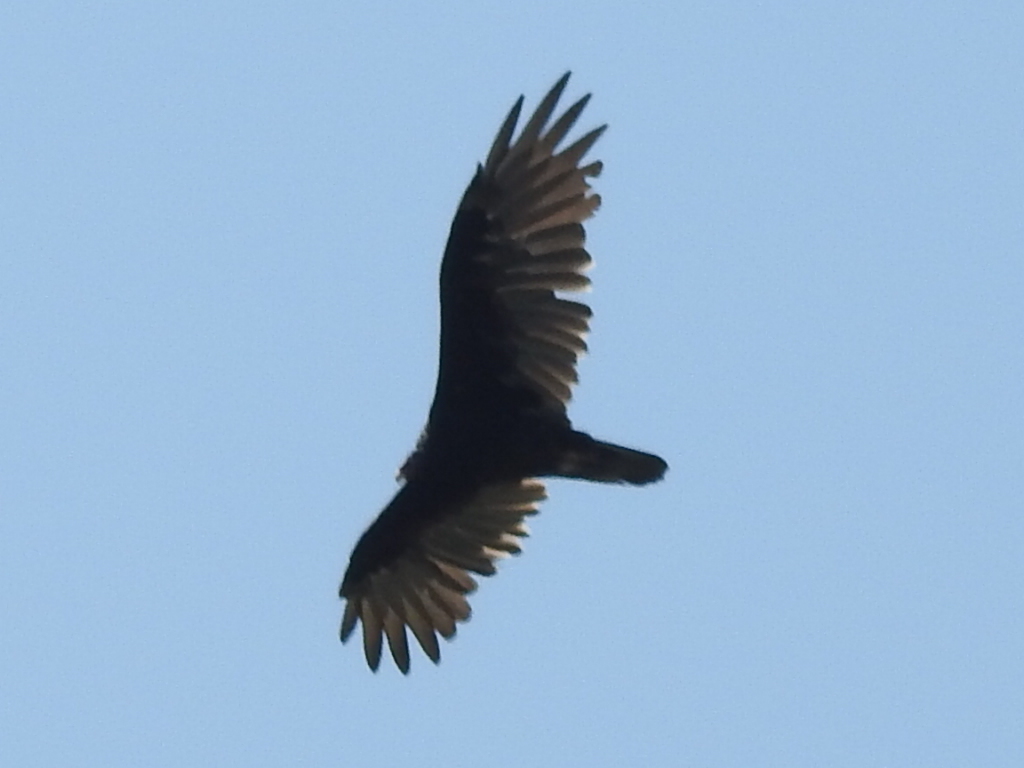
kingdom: Animalia
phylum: Chordata
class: Aves
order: Accipitriformes
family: Cathartidae
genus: Cathartes
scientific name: Cathartes aura
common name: Turkey vulture
